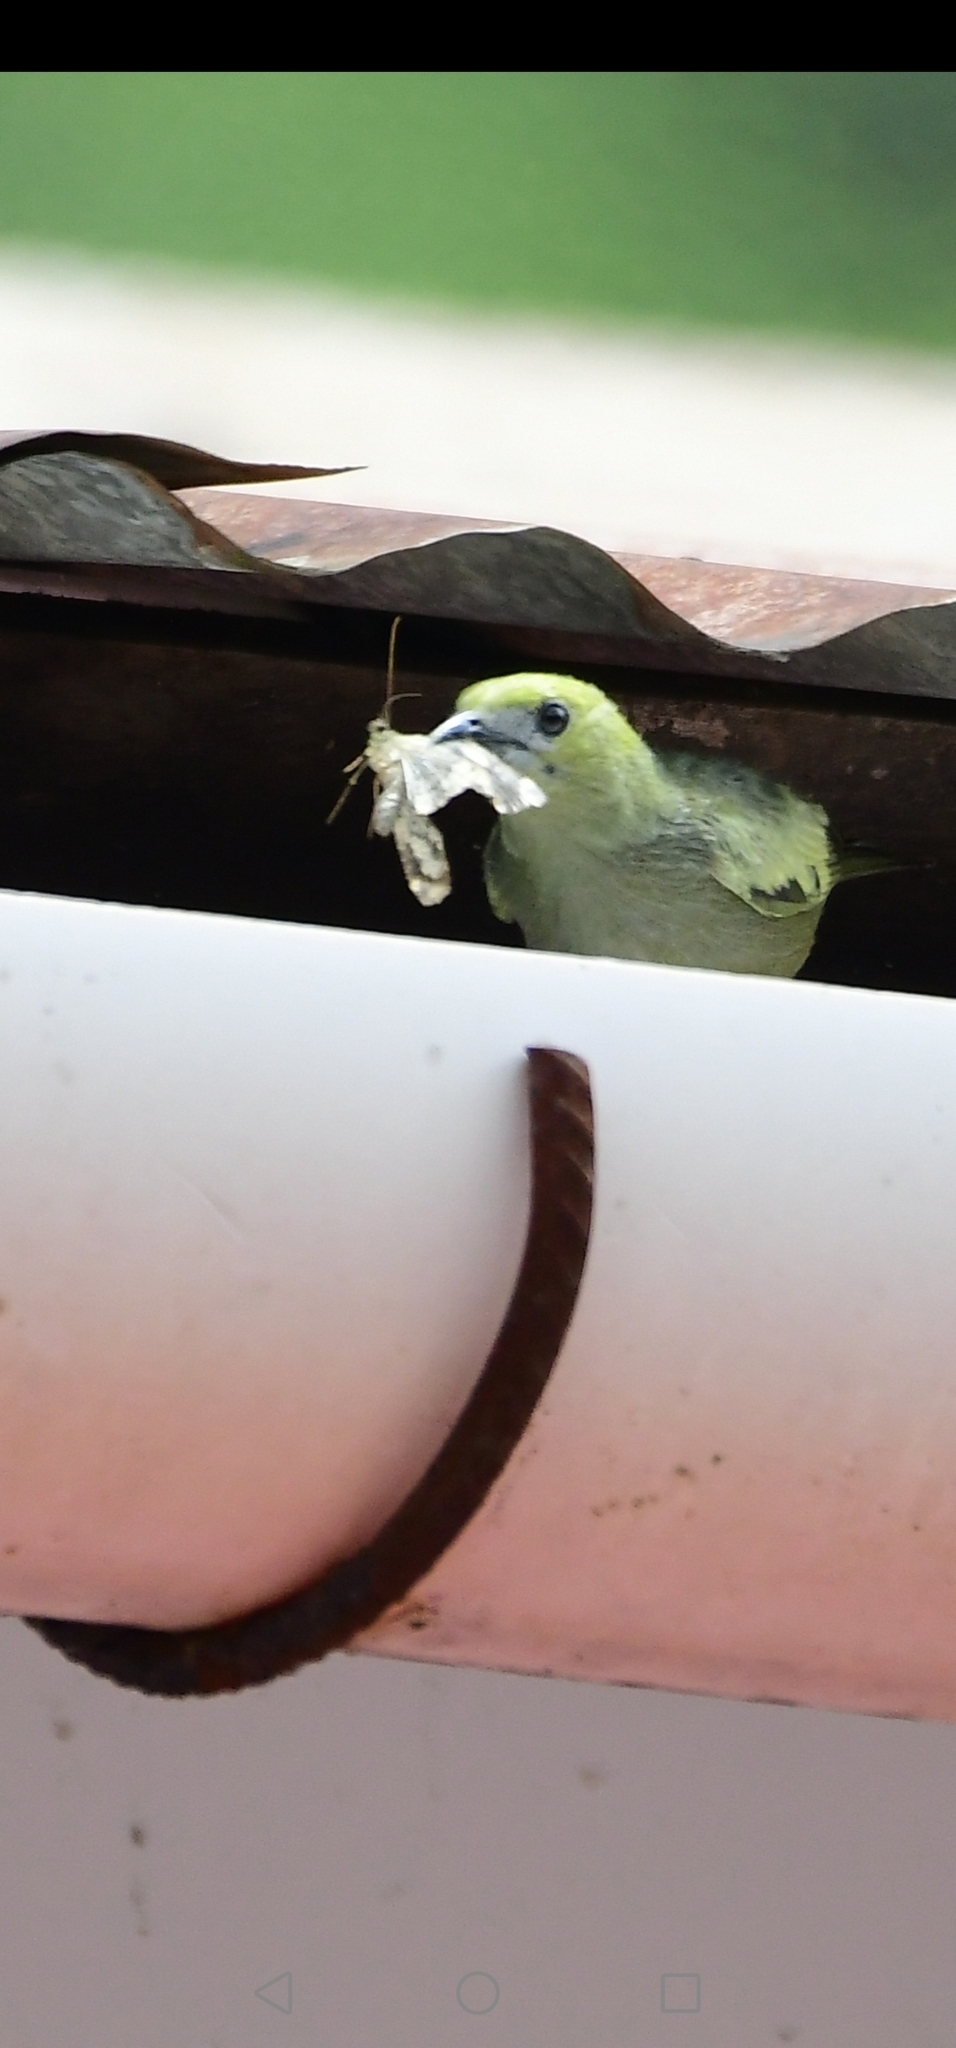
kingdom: Animalia
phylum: Chordata
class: Aves
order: Passeriformes
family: Thraupidae
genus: Thraupis
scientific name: Thraupis palmarum
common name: Palm tanager
